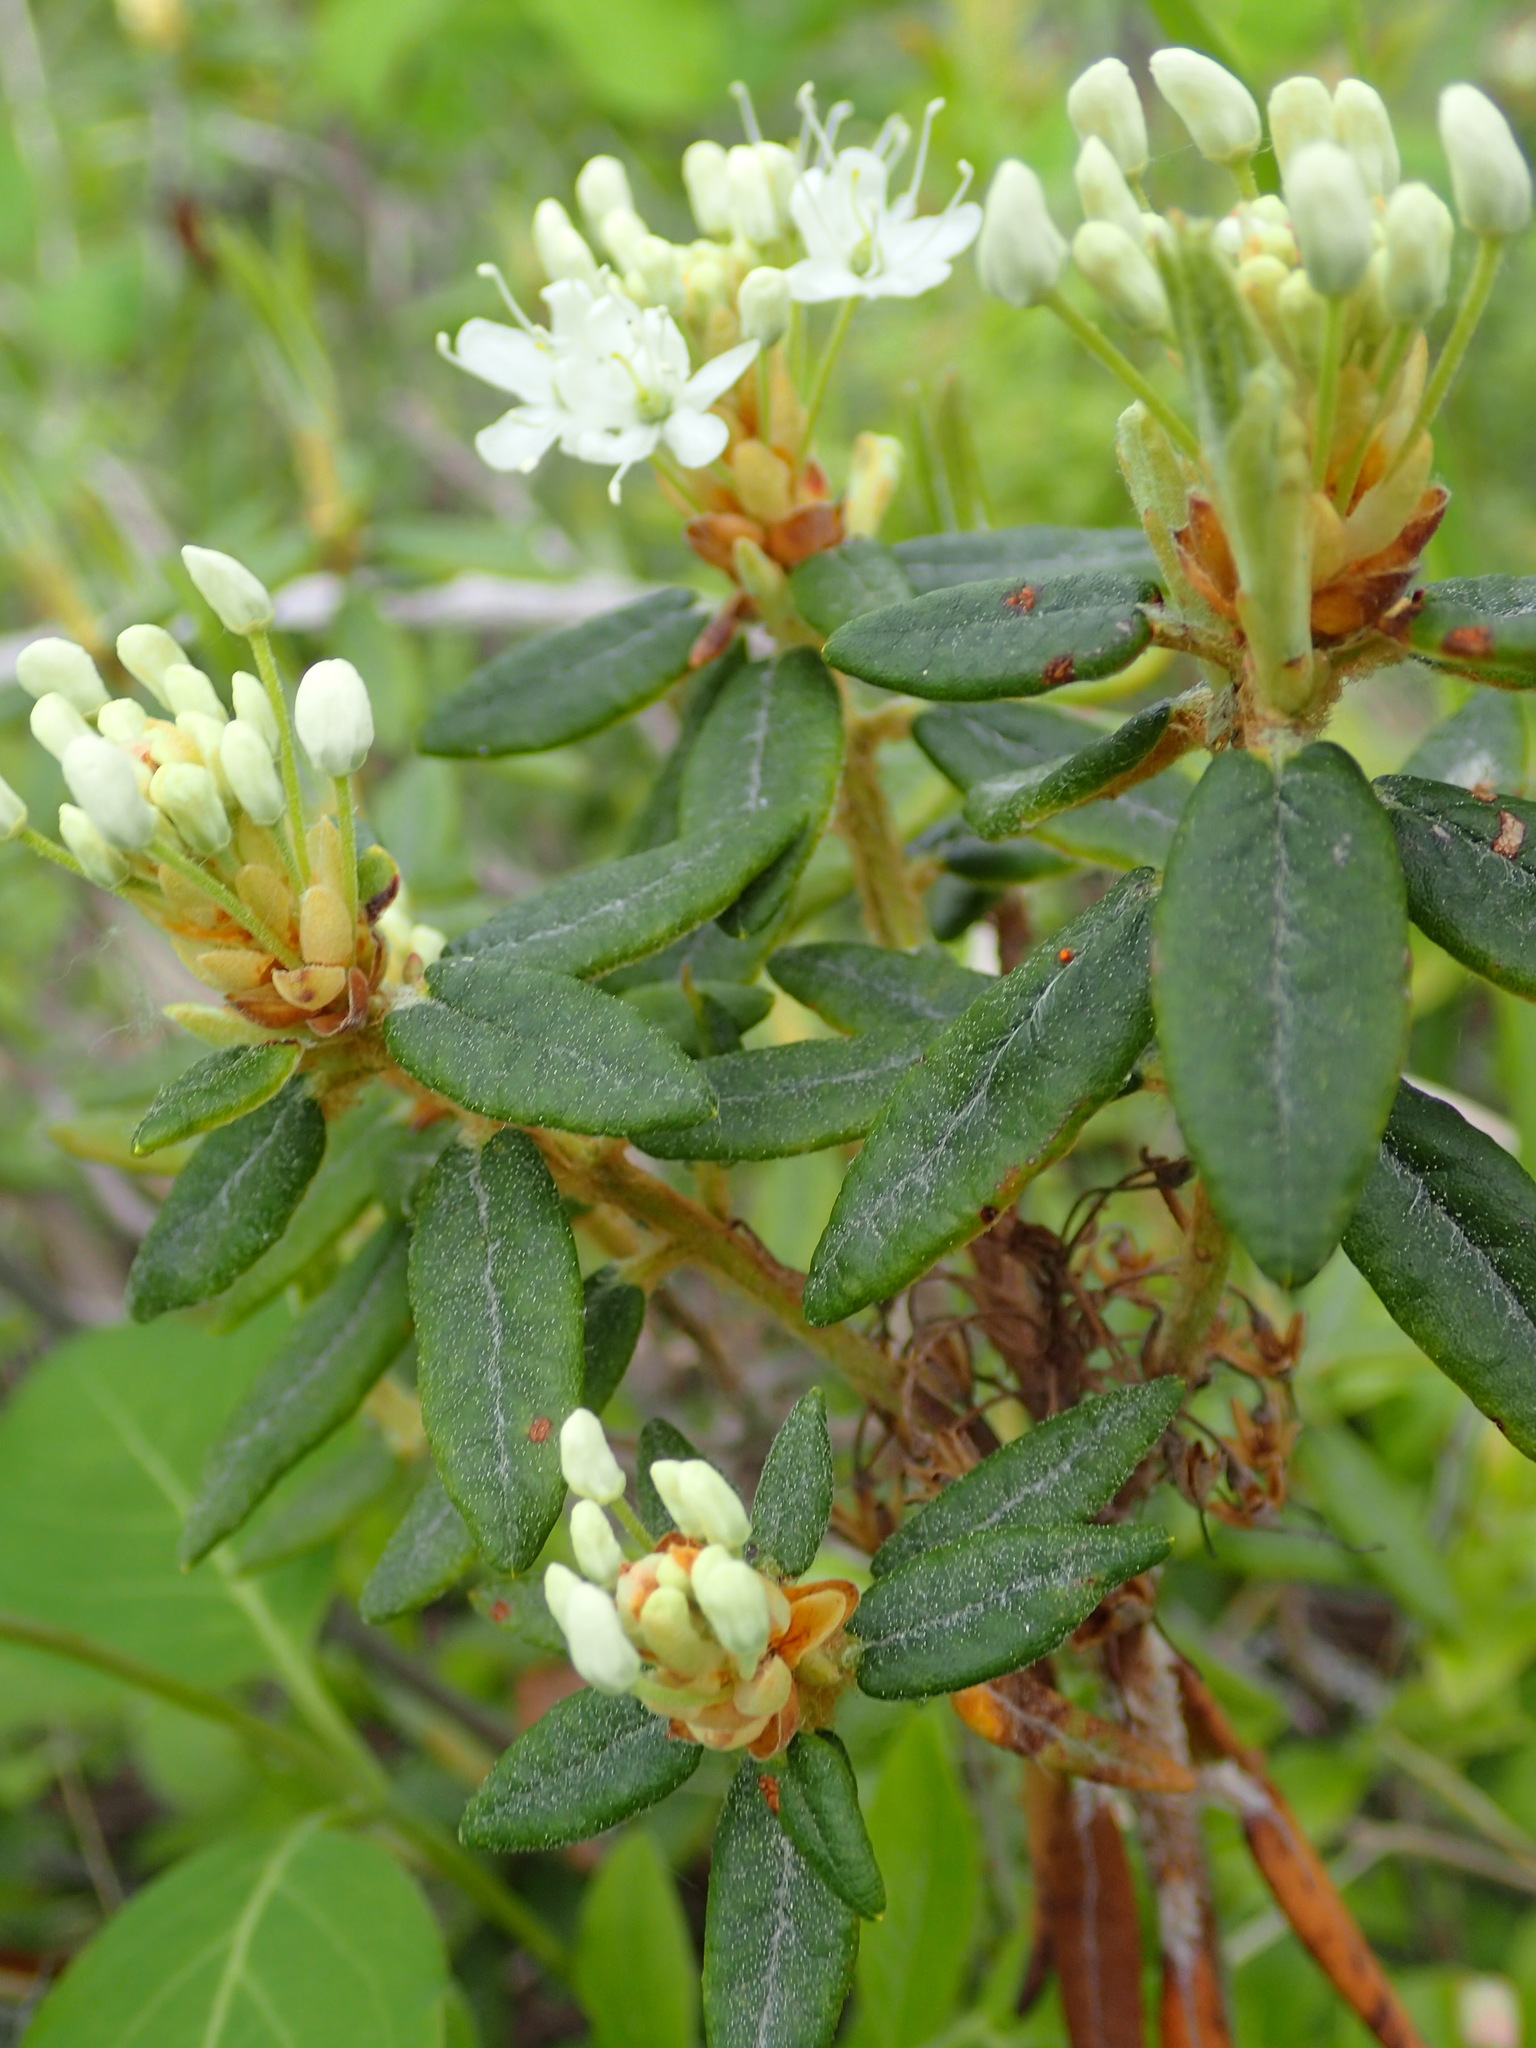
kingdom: Plantae
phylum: Tracheophyta
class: Magnoliopsida
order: Ericales
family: Ericaceae
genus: Rhododendron
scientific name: Rhododendron groenlandicum
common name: Bog labrador tea
